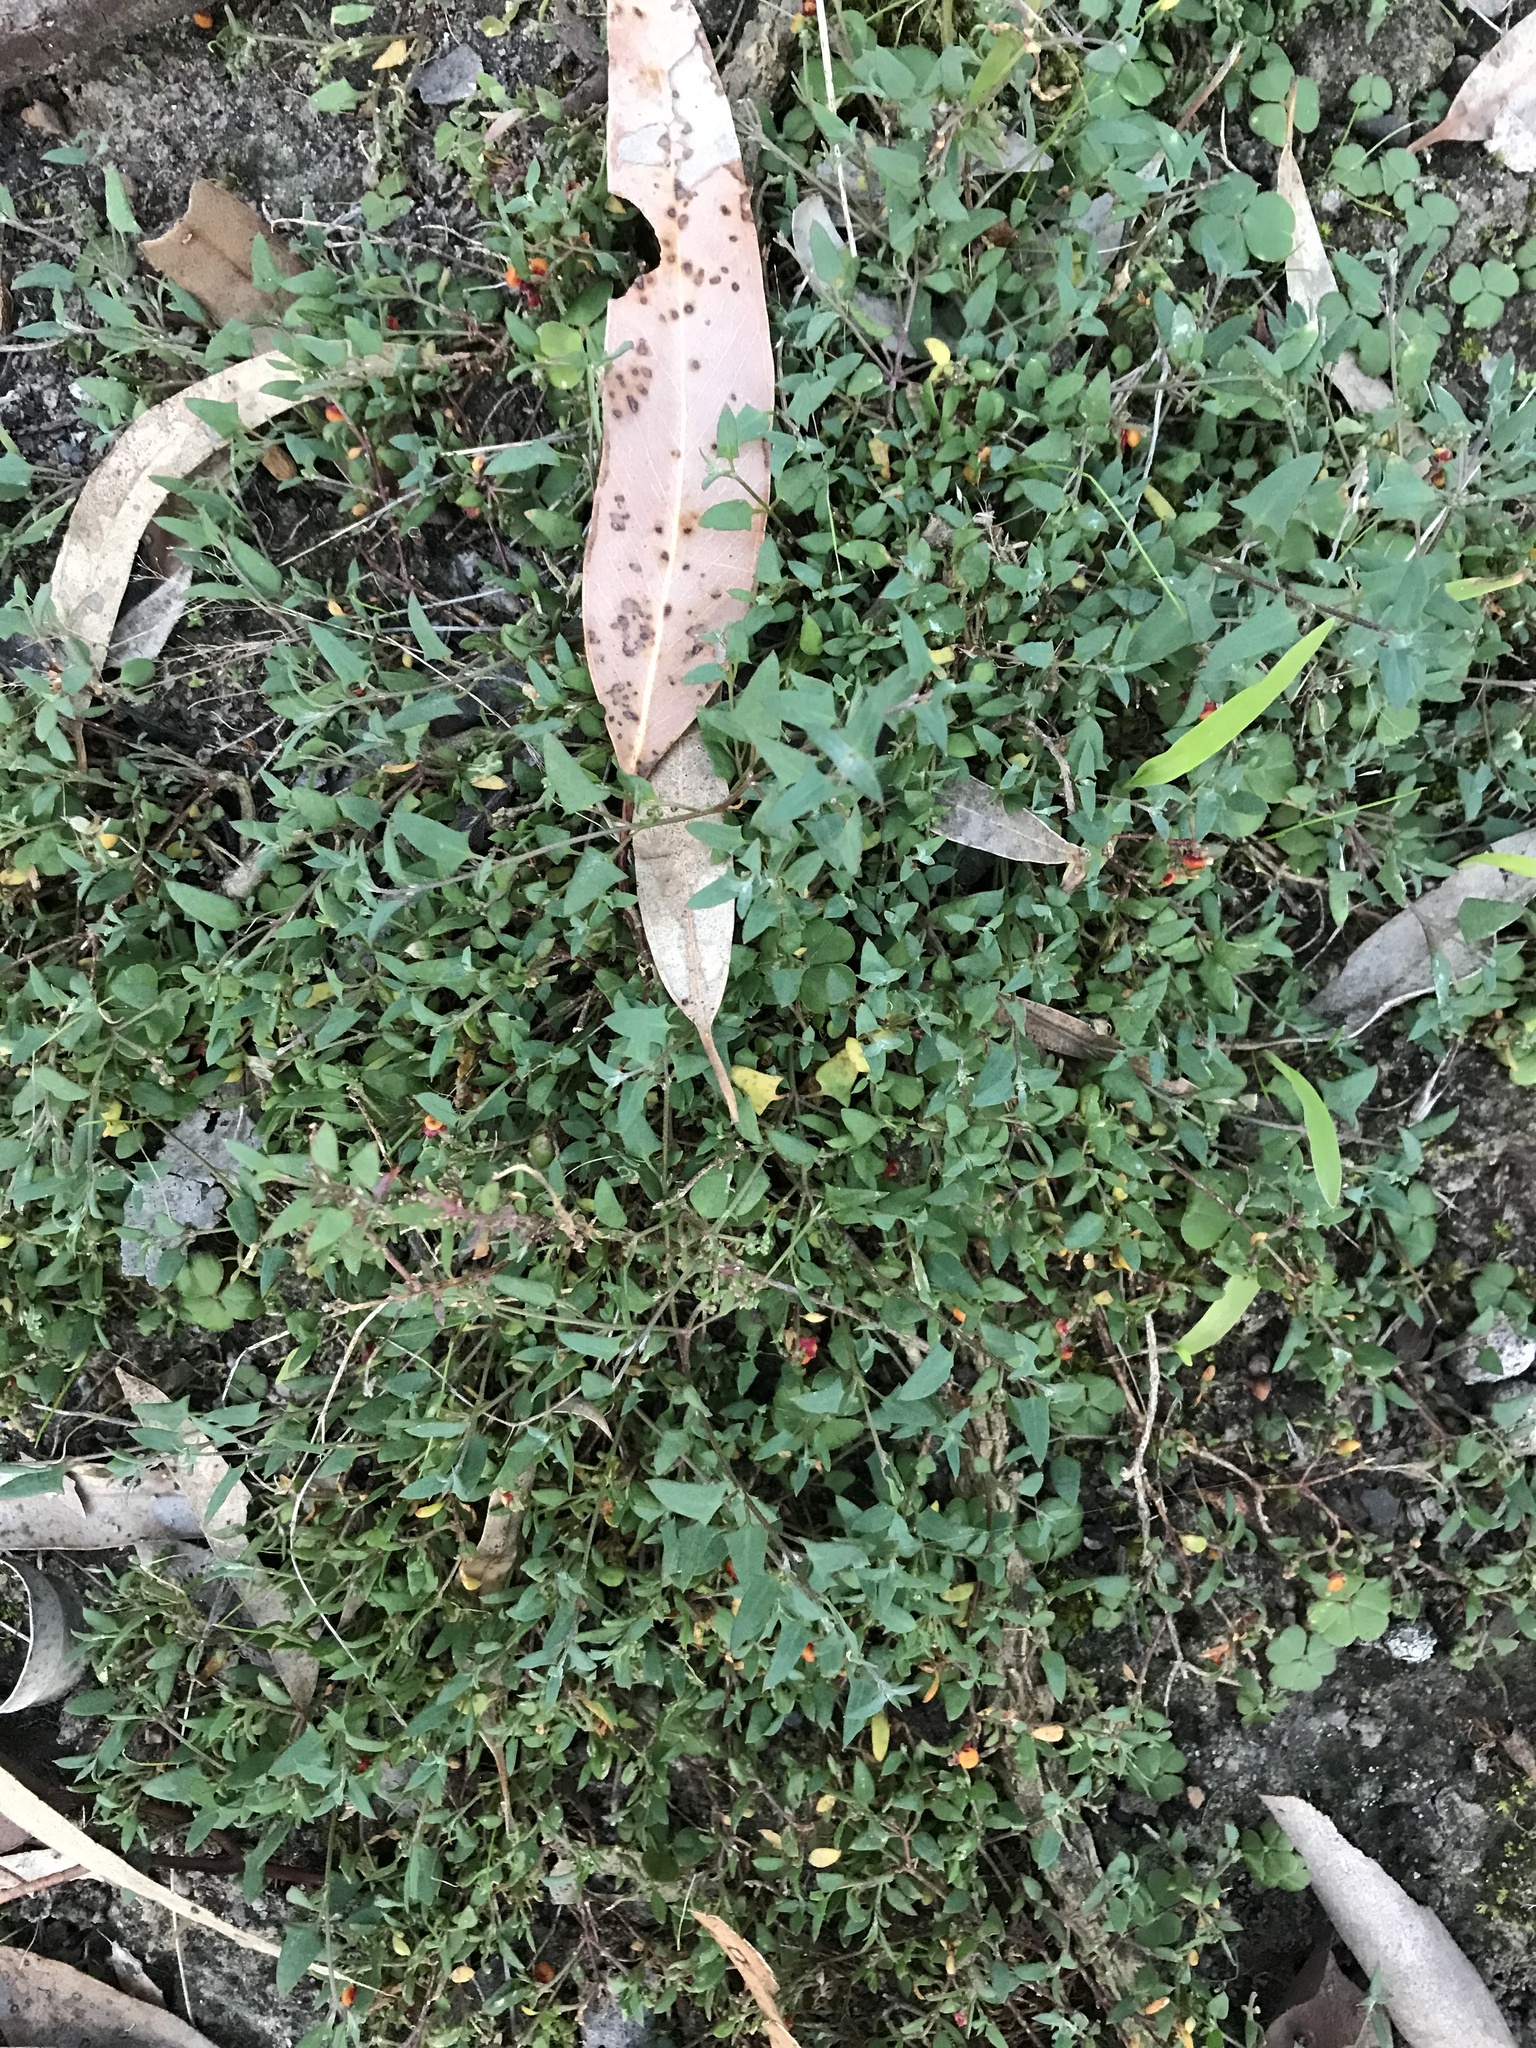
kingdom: Plantae
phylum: Tracheophyta
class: Magnoliopsida
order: Caryophyllales
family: Amaranthaceae
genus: Chenopodium
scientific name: Chenopodium nutans
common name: Climbing-saltbush
